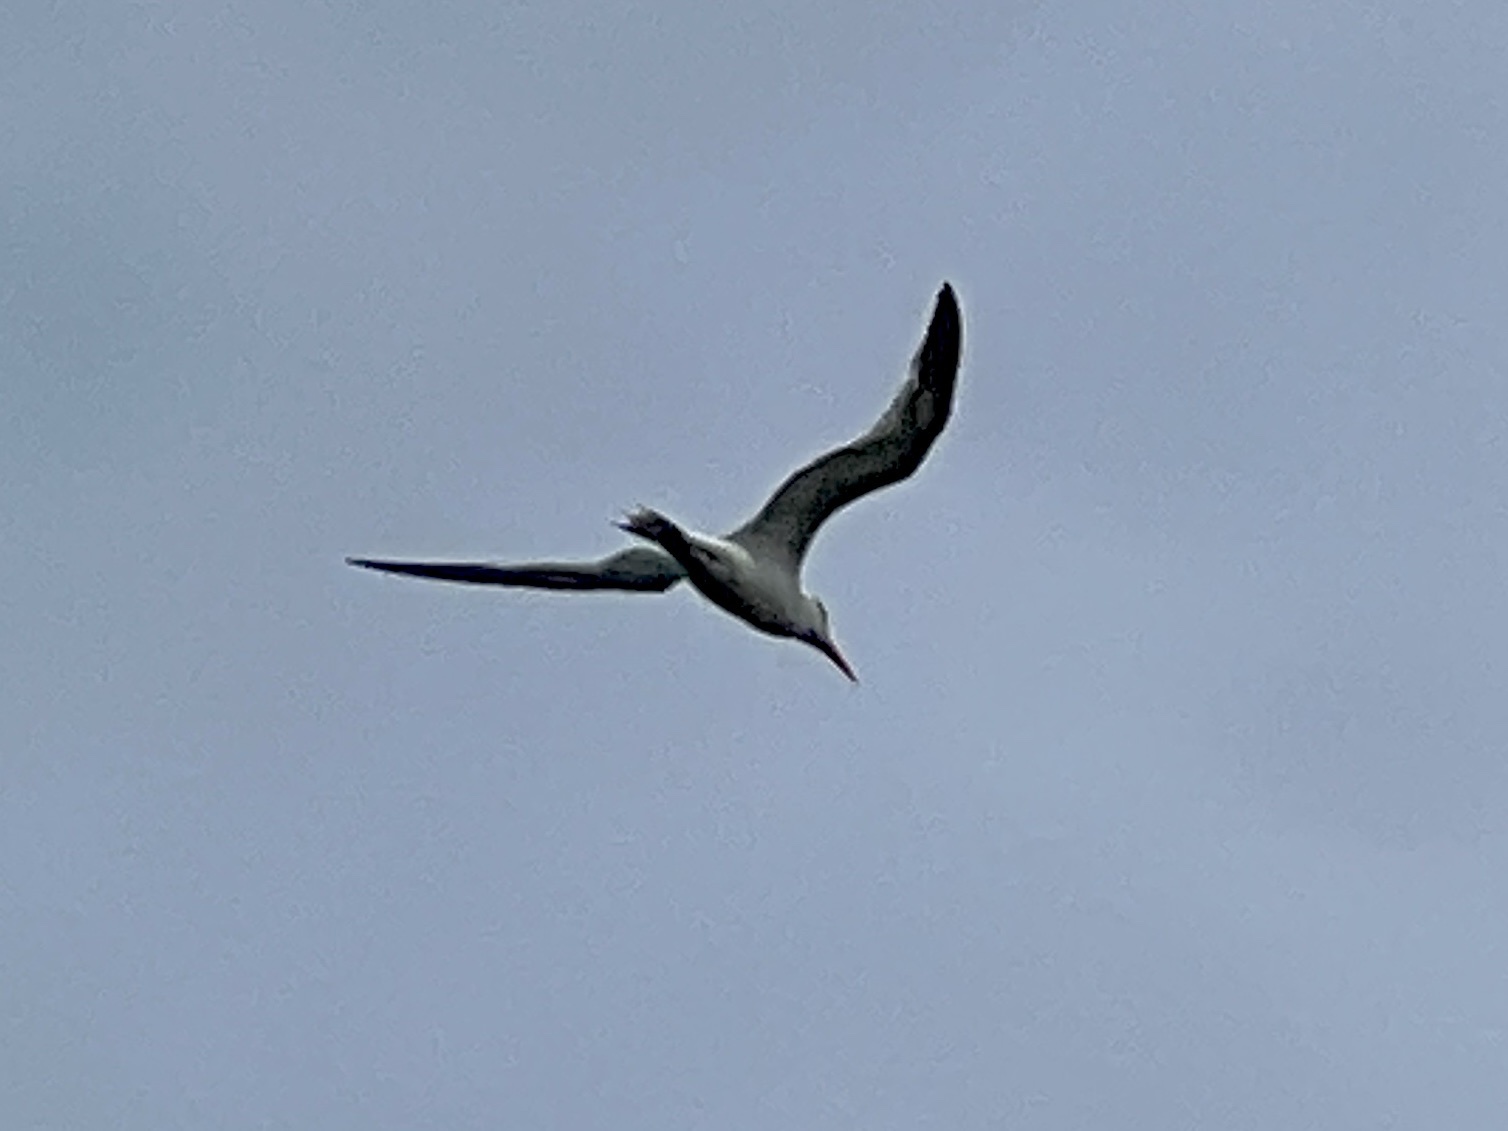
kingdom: Animalia
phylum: Chordata
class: Aves
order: Charadriiformes
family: Laridae
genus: Thalasseus
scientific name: Thalasseus maximus
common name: Royal tern
